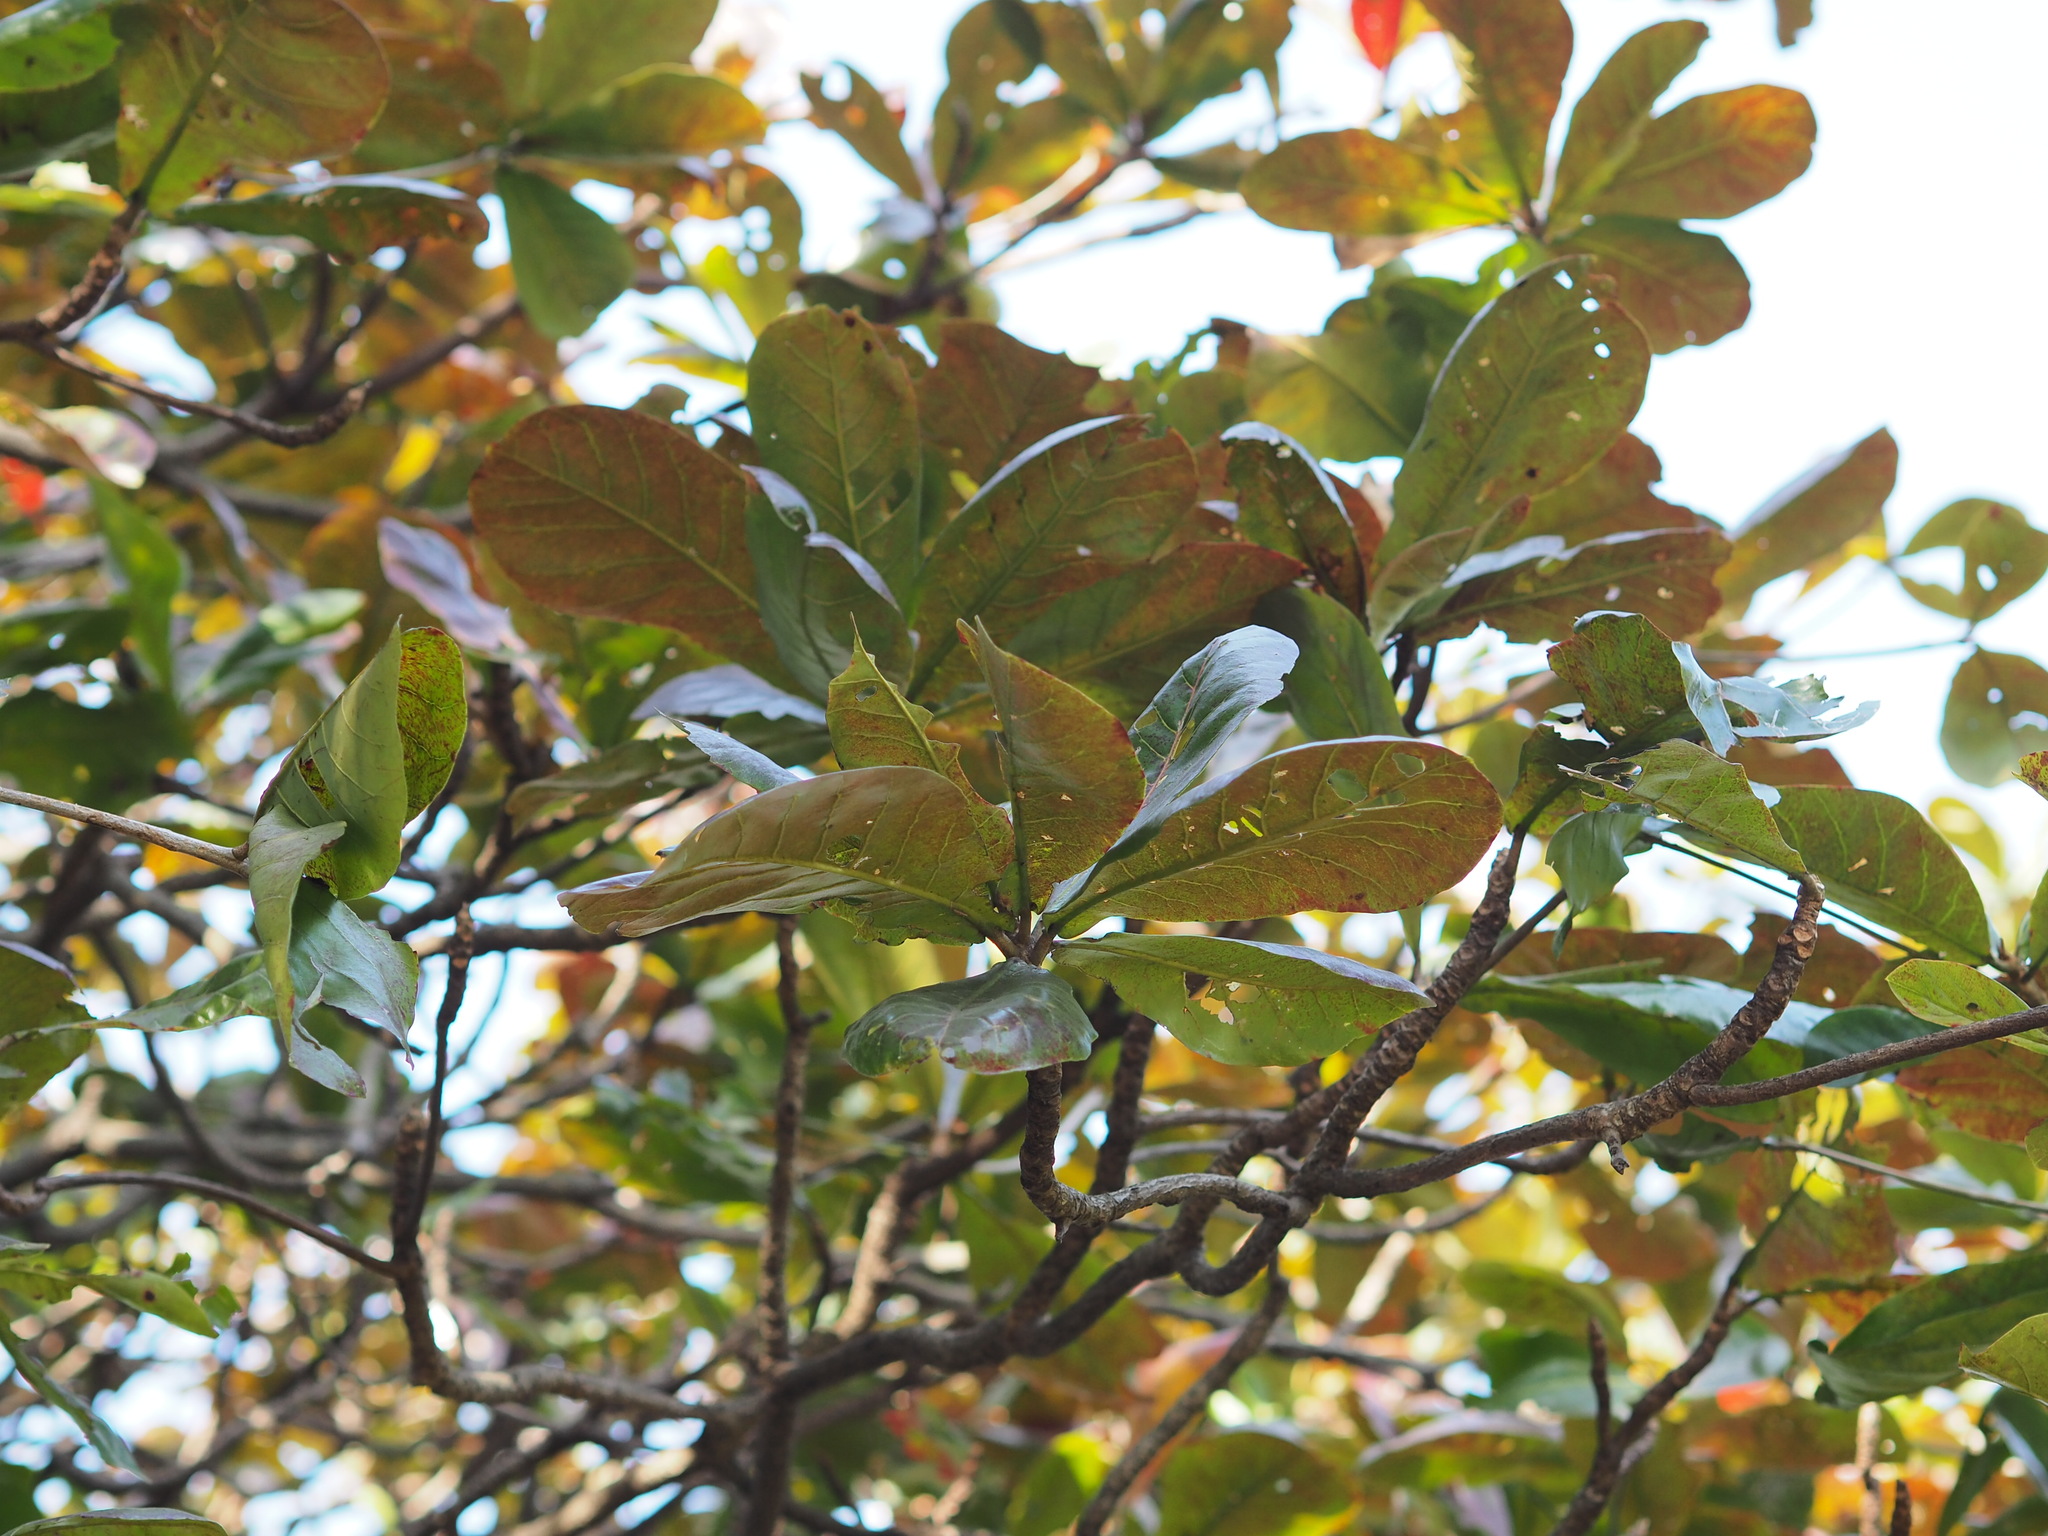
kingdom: Plantae
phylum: Tracheophyta
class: Magnoliopsida
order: Myrtales
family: Combretaceae
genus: Terminalia
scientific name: Terminalia catappa
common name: Tropical almond
